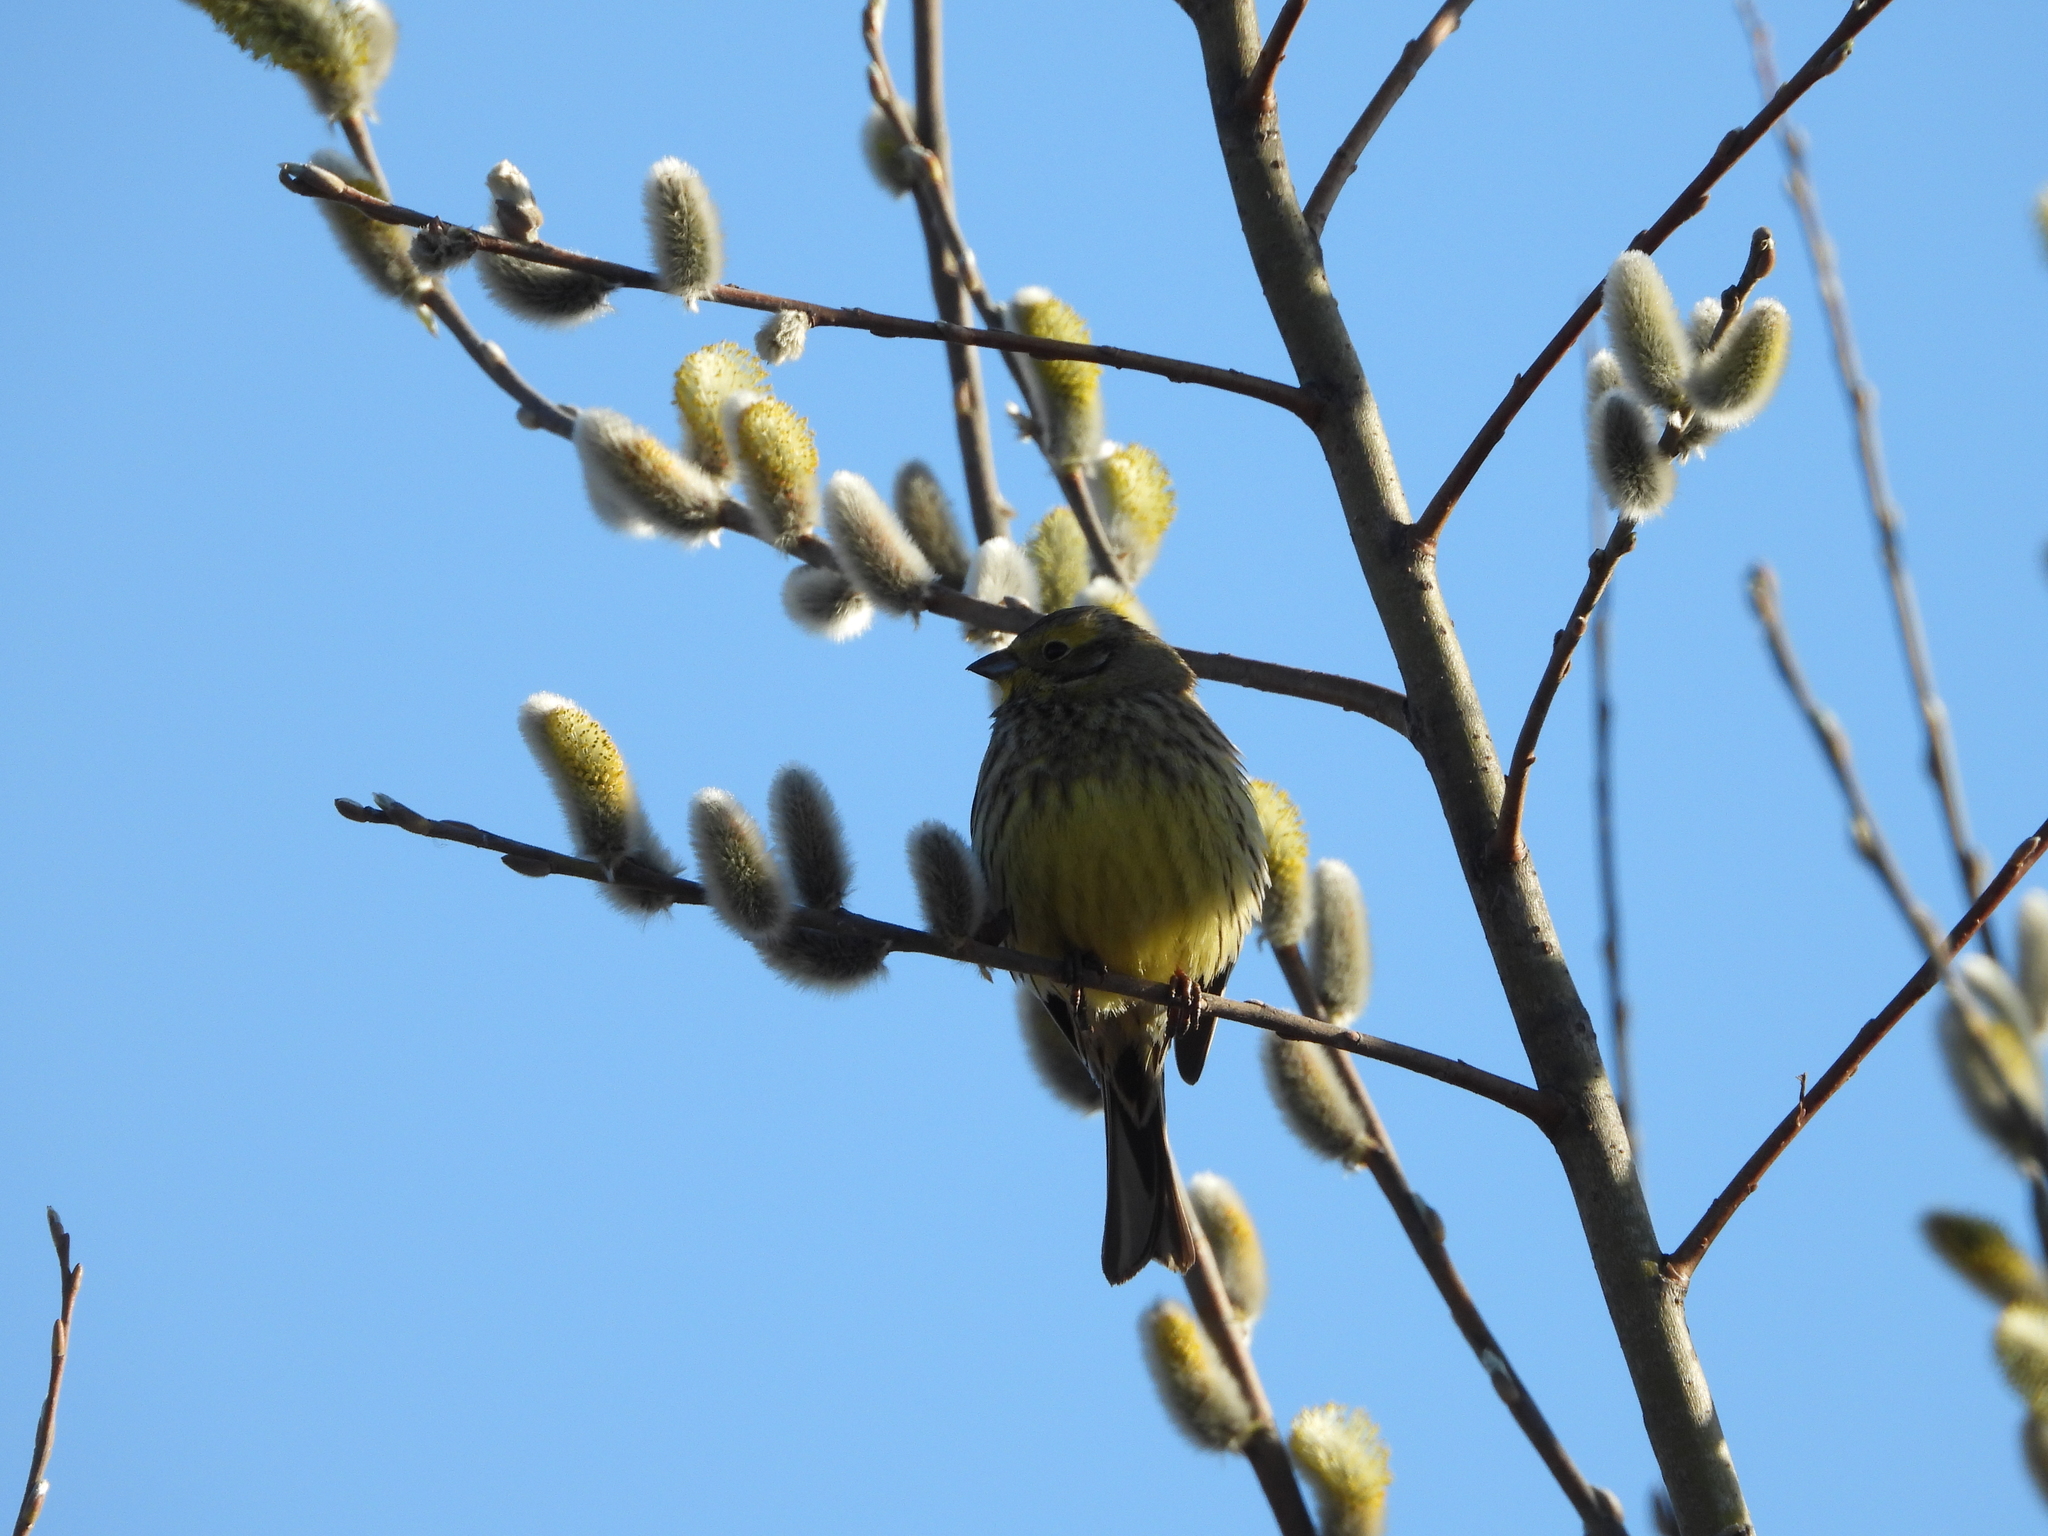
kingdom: Animalia
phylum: Chordata
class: Aves
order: Passeriformes
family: Emberizidae
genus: Emberiza
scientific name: Emberiza citrinella
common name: Yellowhammer
